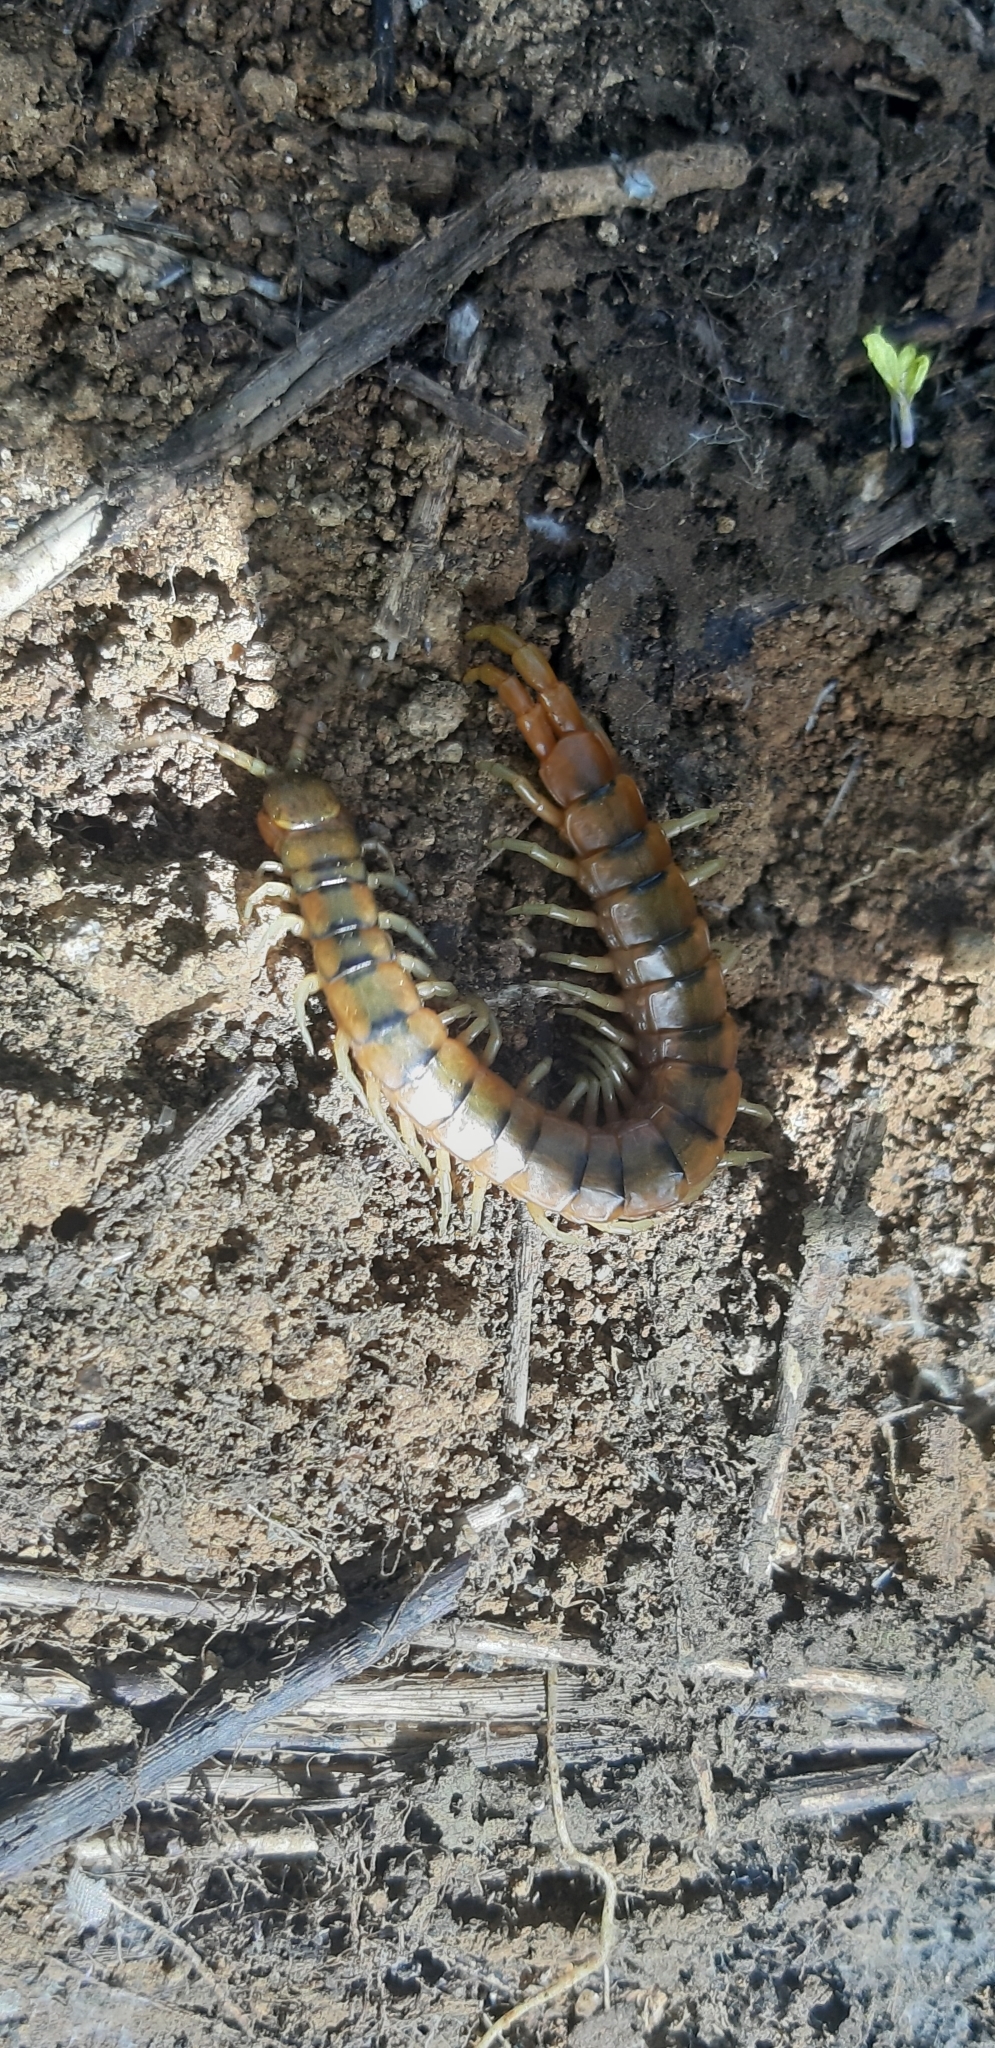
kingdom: Animalia
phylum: Arthropoda
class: Chilopoda
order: Scolopendromorpha
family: Scolopendridae
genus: Scolopendra
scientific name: Scolopendra cingulata
